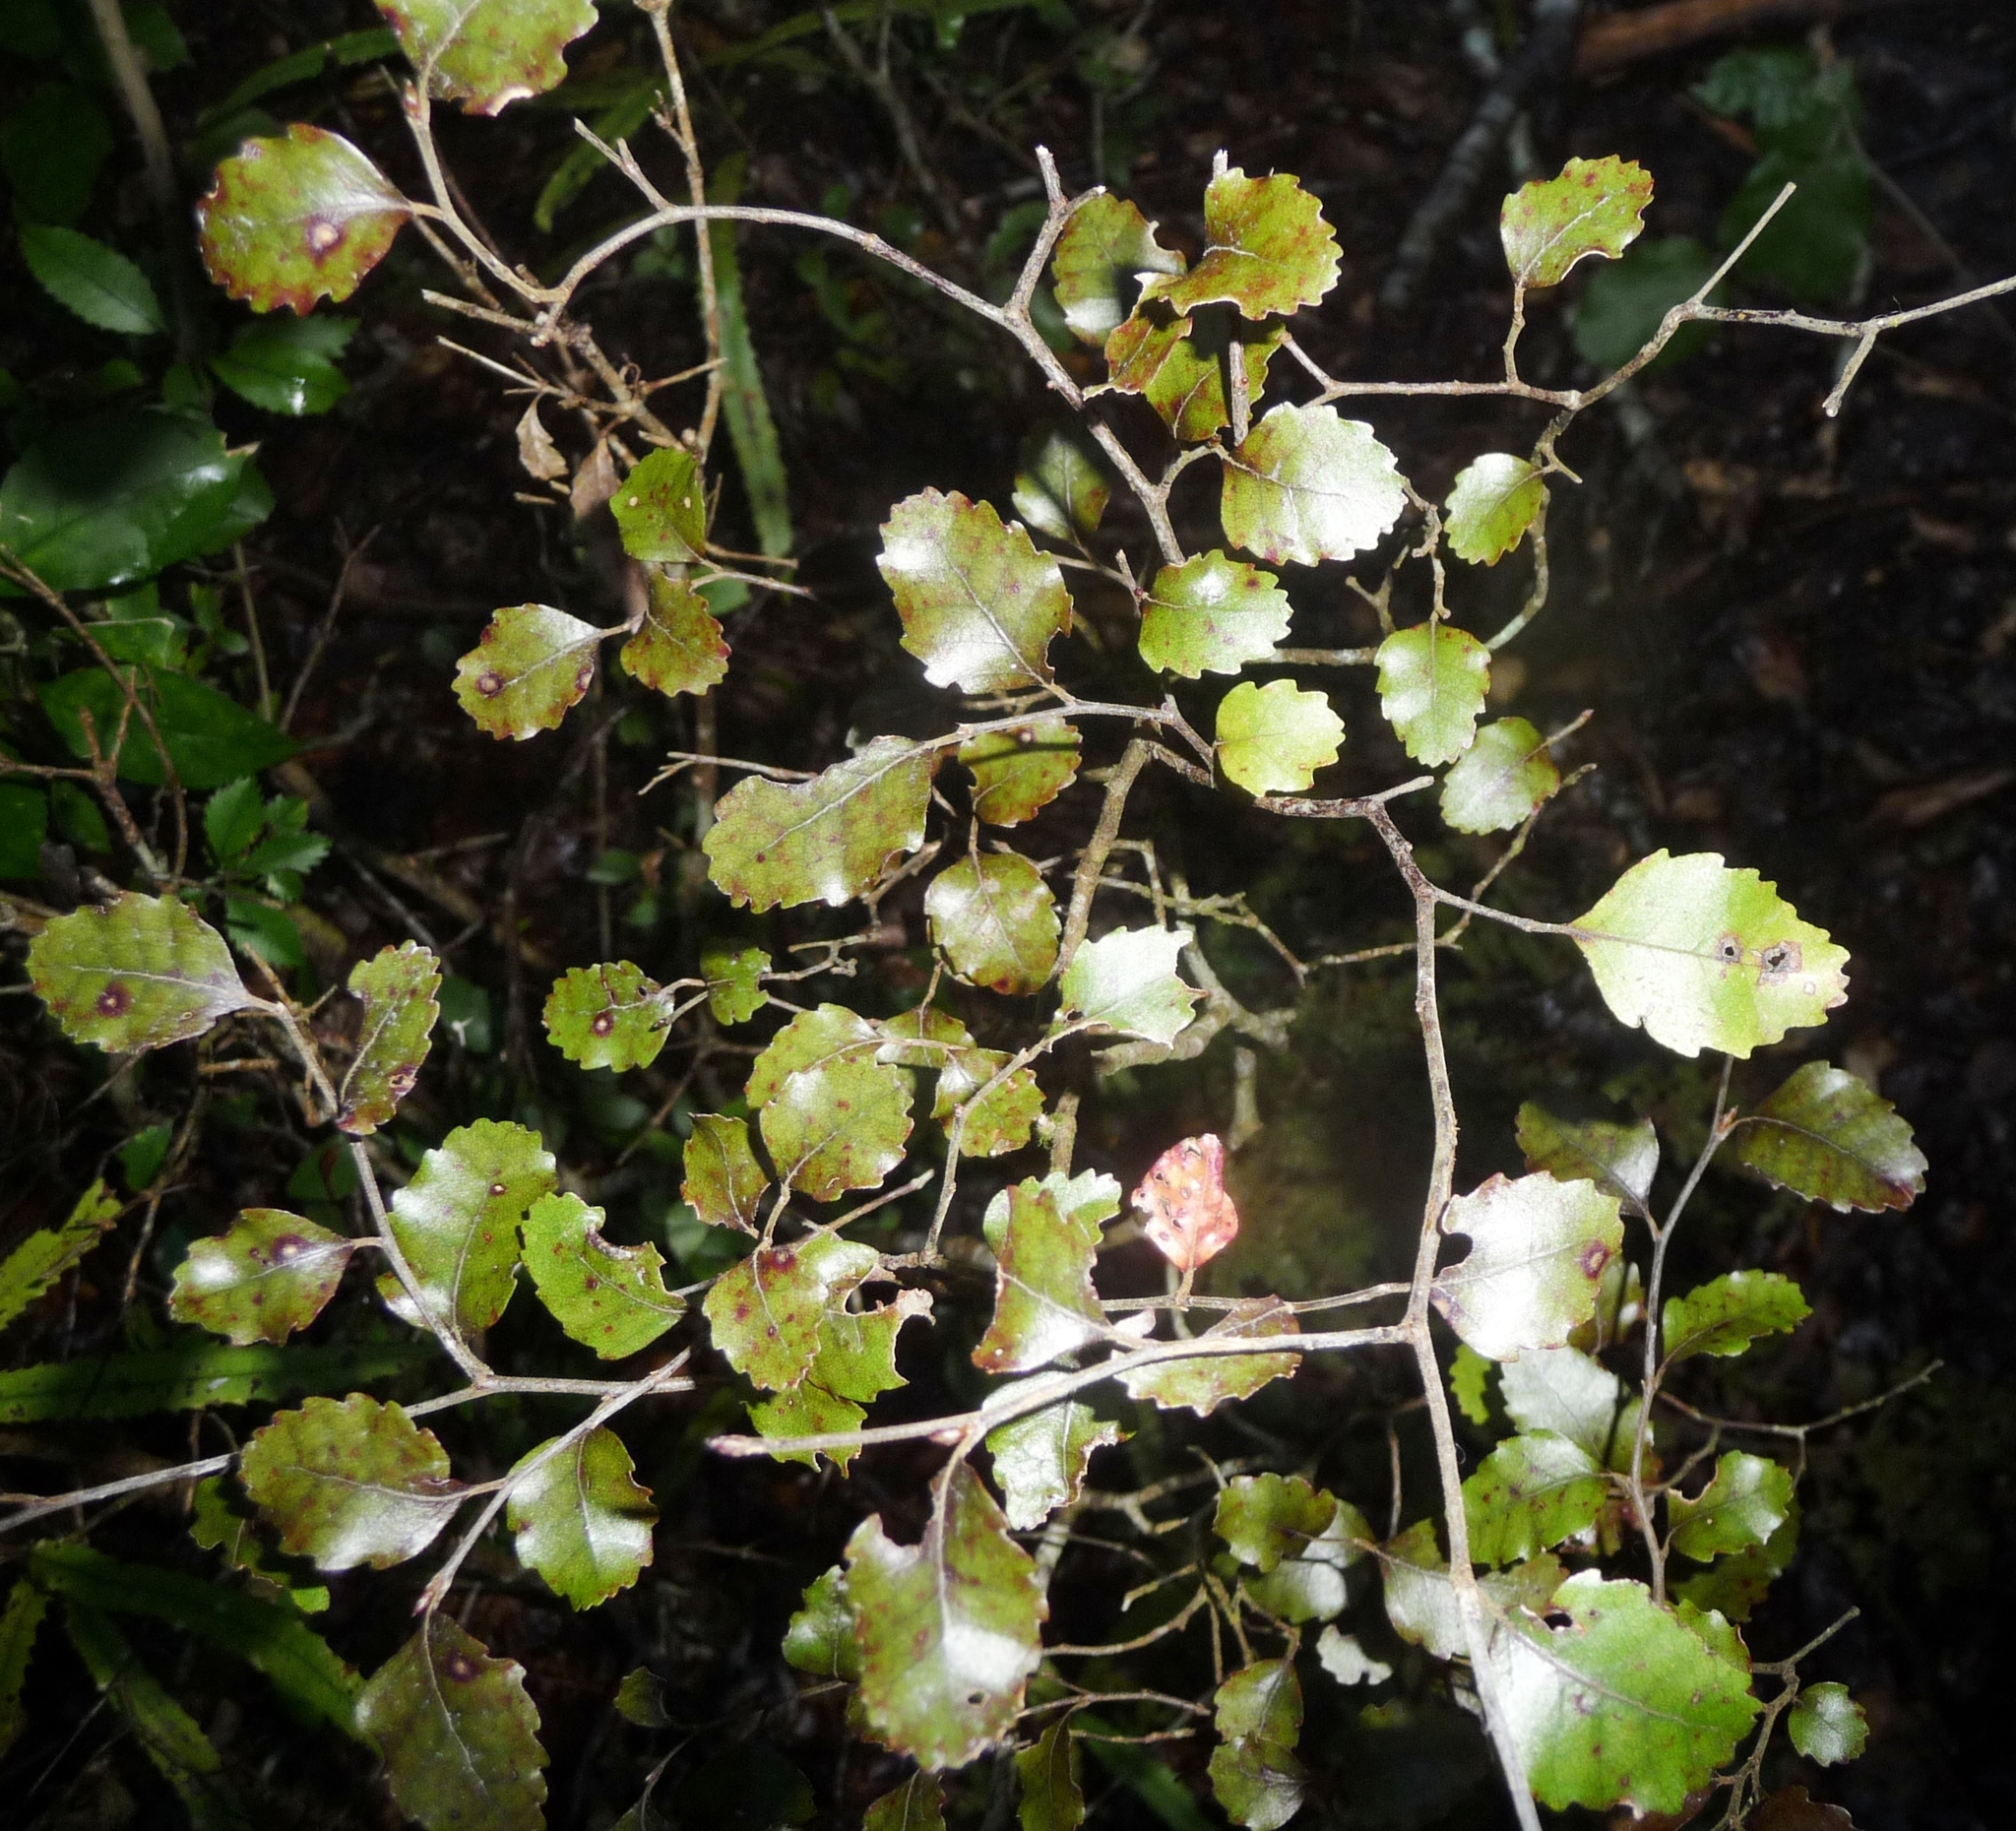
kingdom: Plantae
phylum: Tracheophyta
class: Magnoliopsida
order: Fagales
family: Nothofagaceae
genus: Nothofagus
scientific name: Nothofagus truncata
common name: Hard beech
